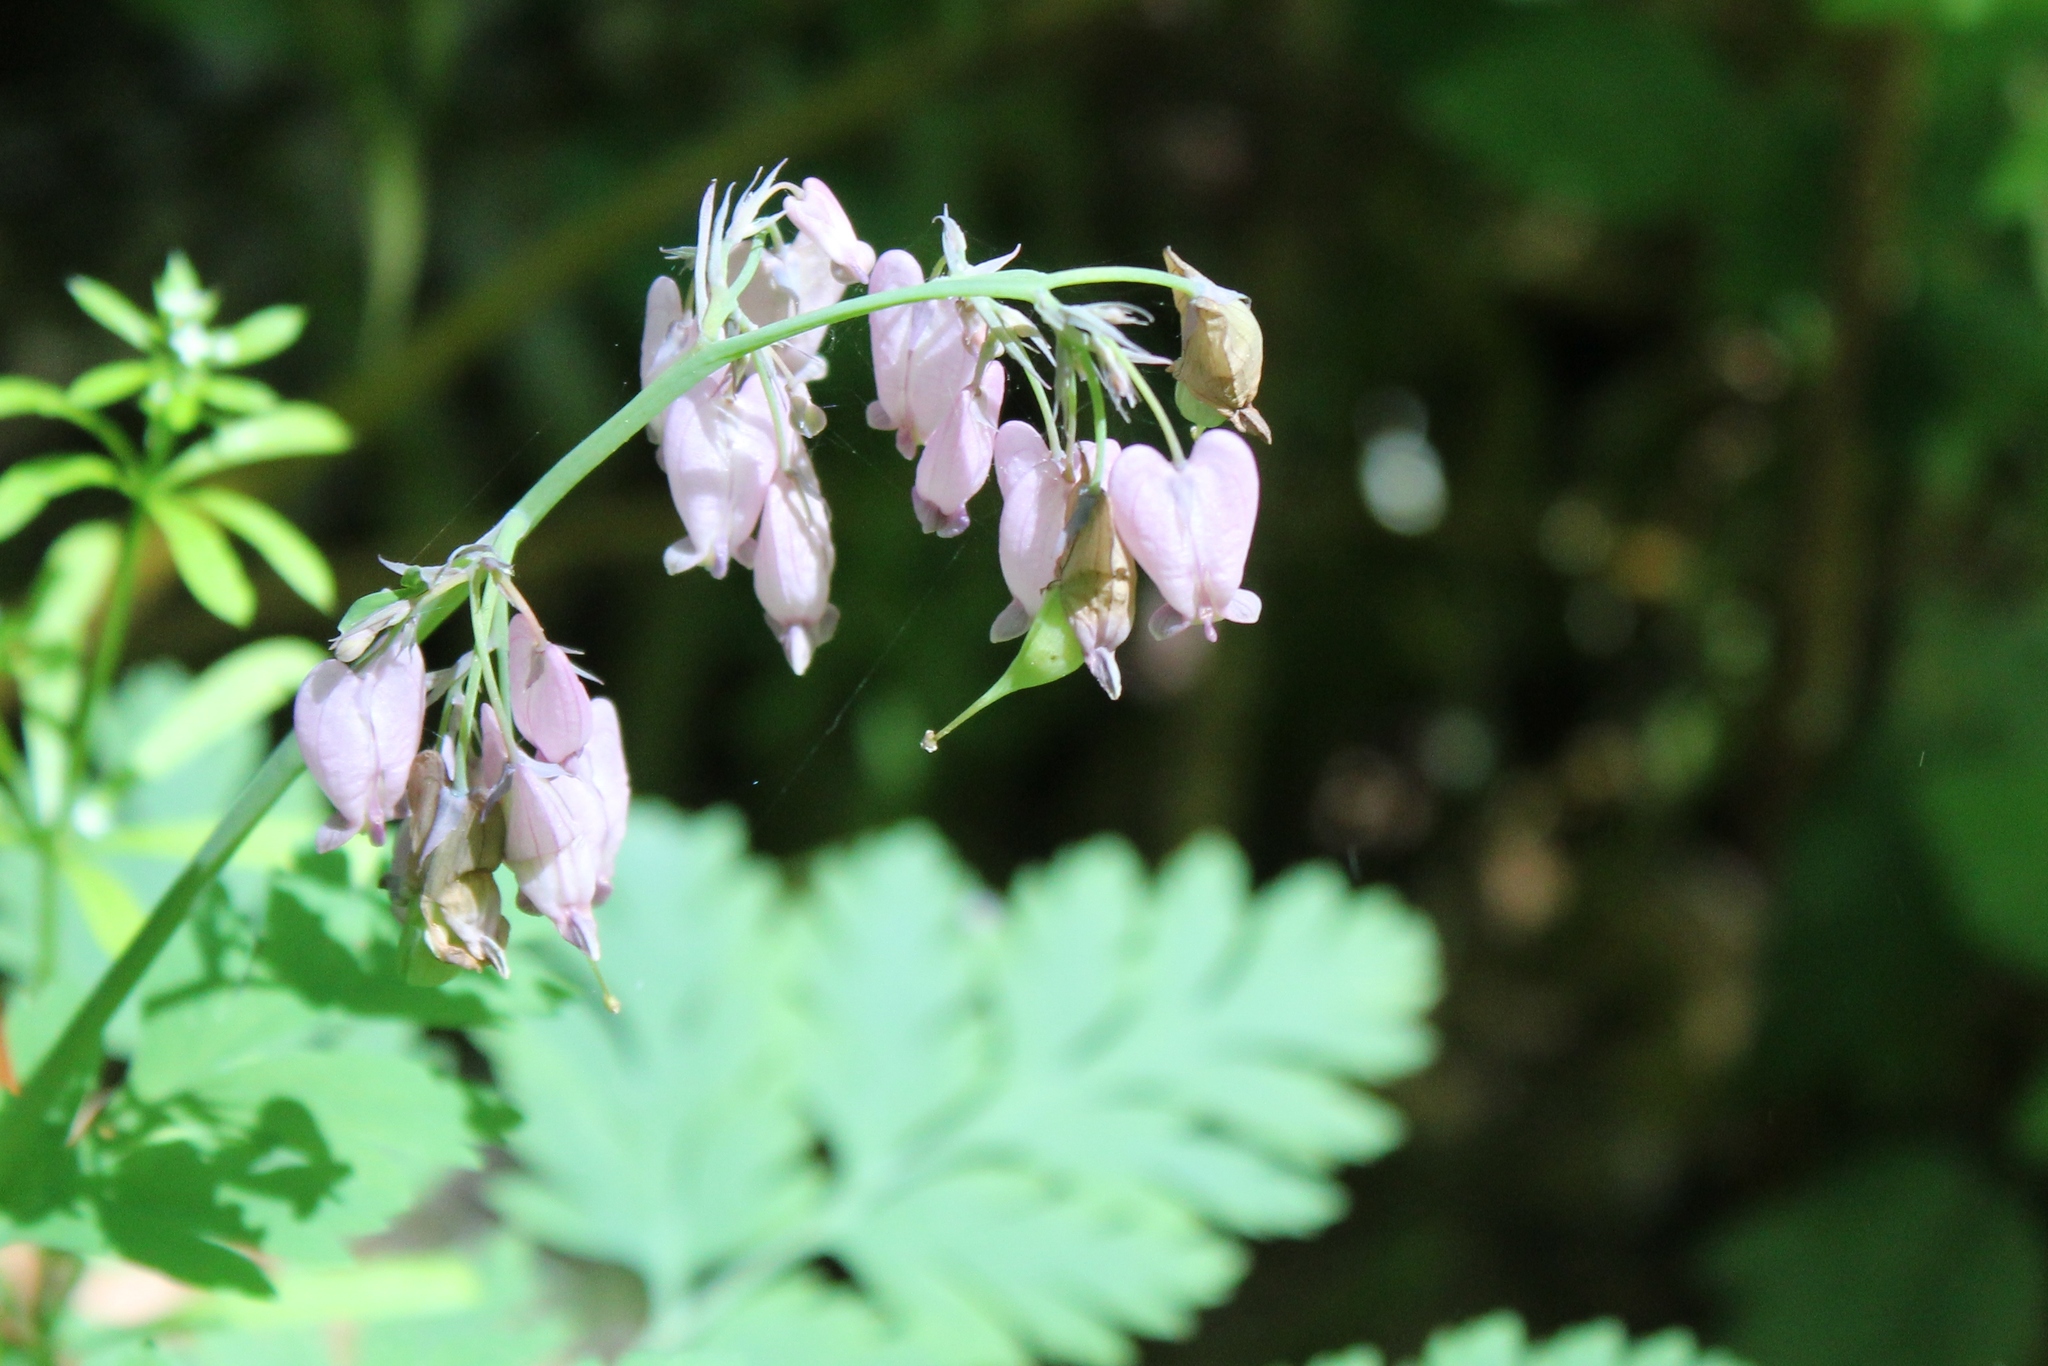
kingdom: Plantae
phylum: Tracheophyta
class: Magnoliopsida
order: Ranunculales
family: Papaveraceae
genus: Dicentra
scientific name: Dicentra formosa
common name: Bleeding-heart
